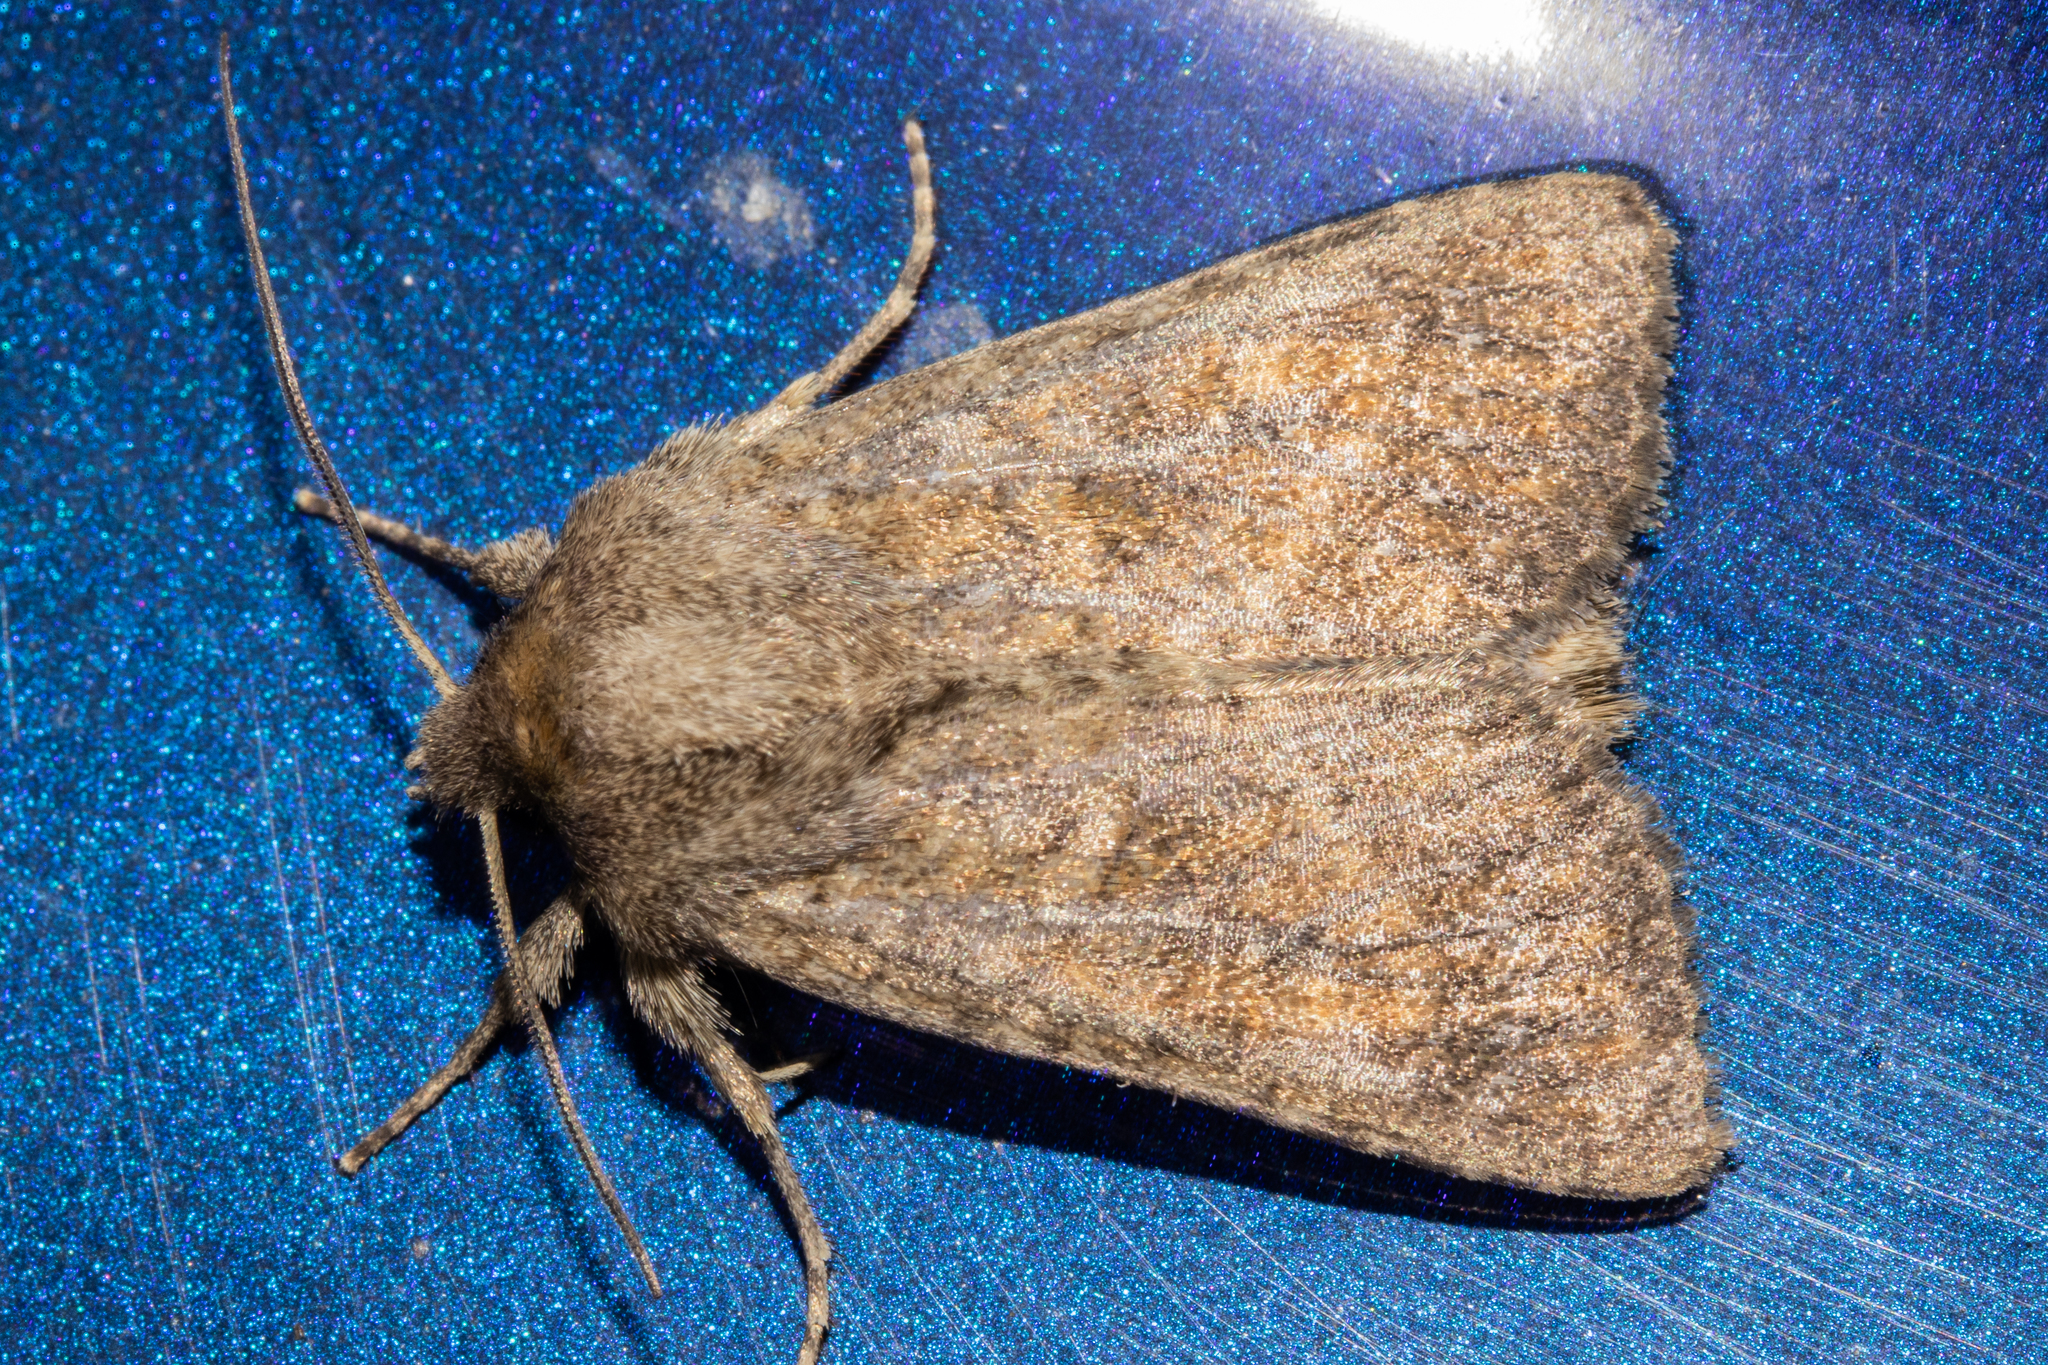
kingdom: Animalia
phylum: Arthropoda
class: Insecta
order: Lepidoptera
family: Noctuidae
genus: Physetica
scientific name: Physetica
